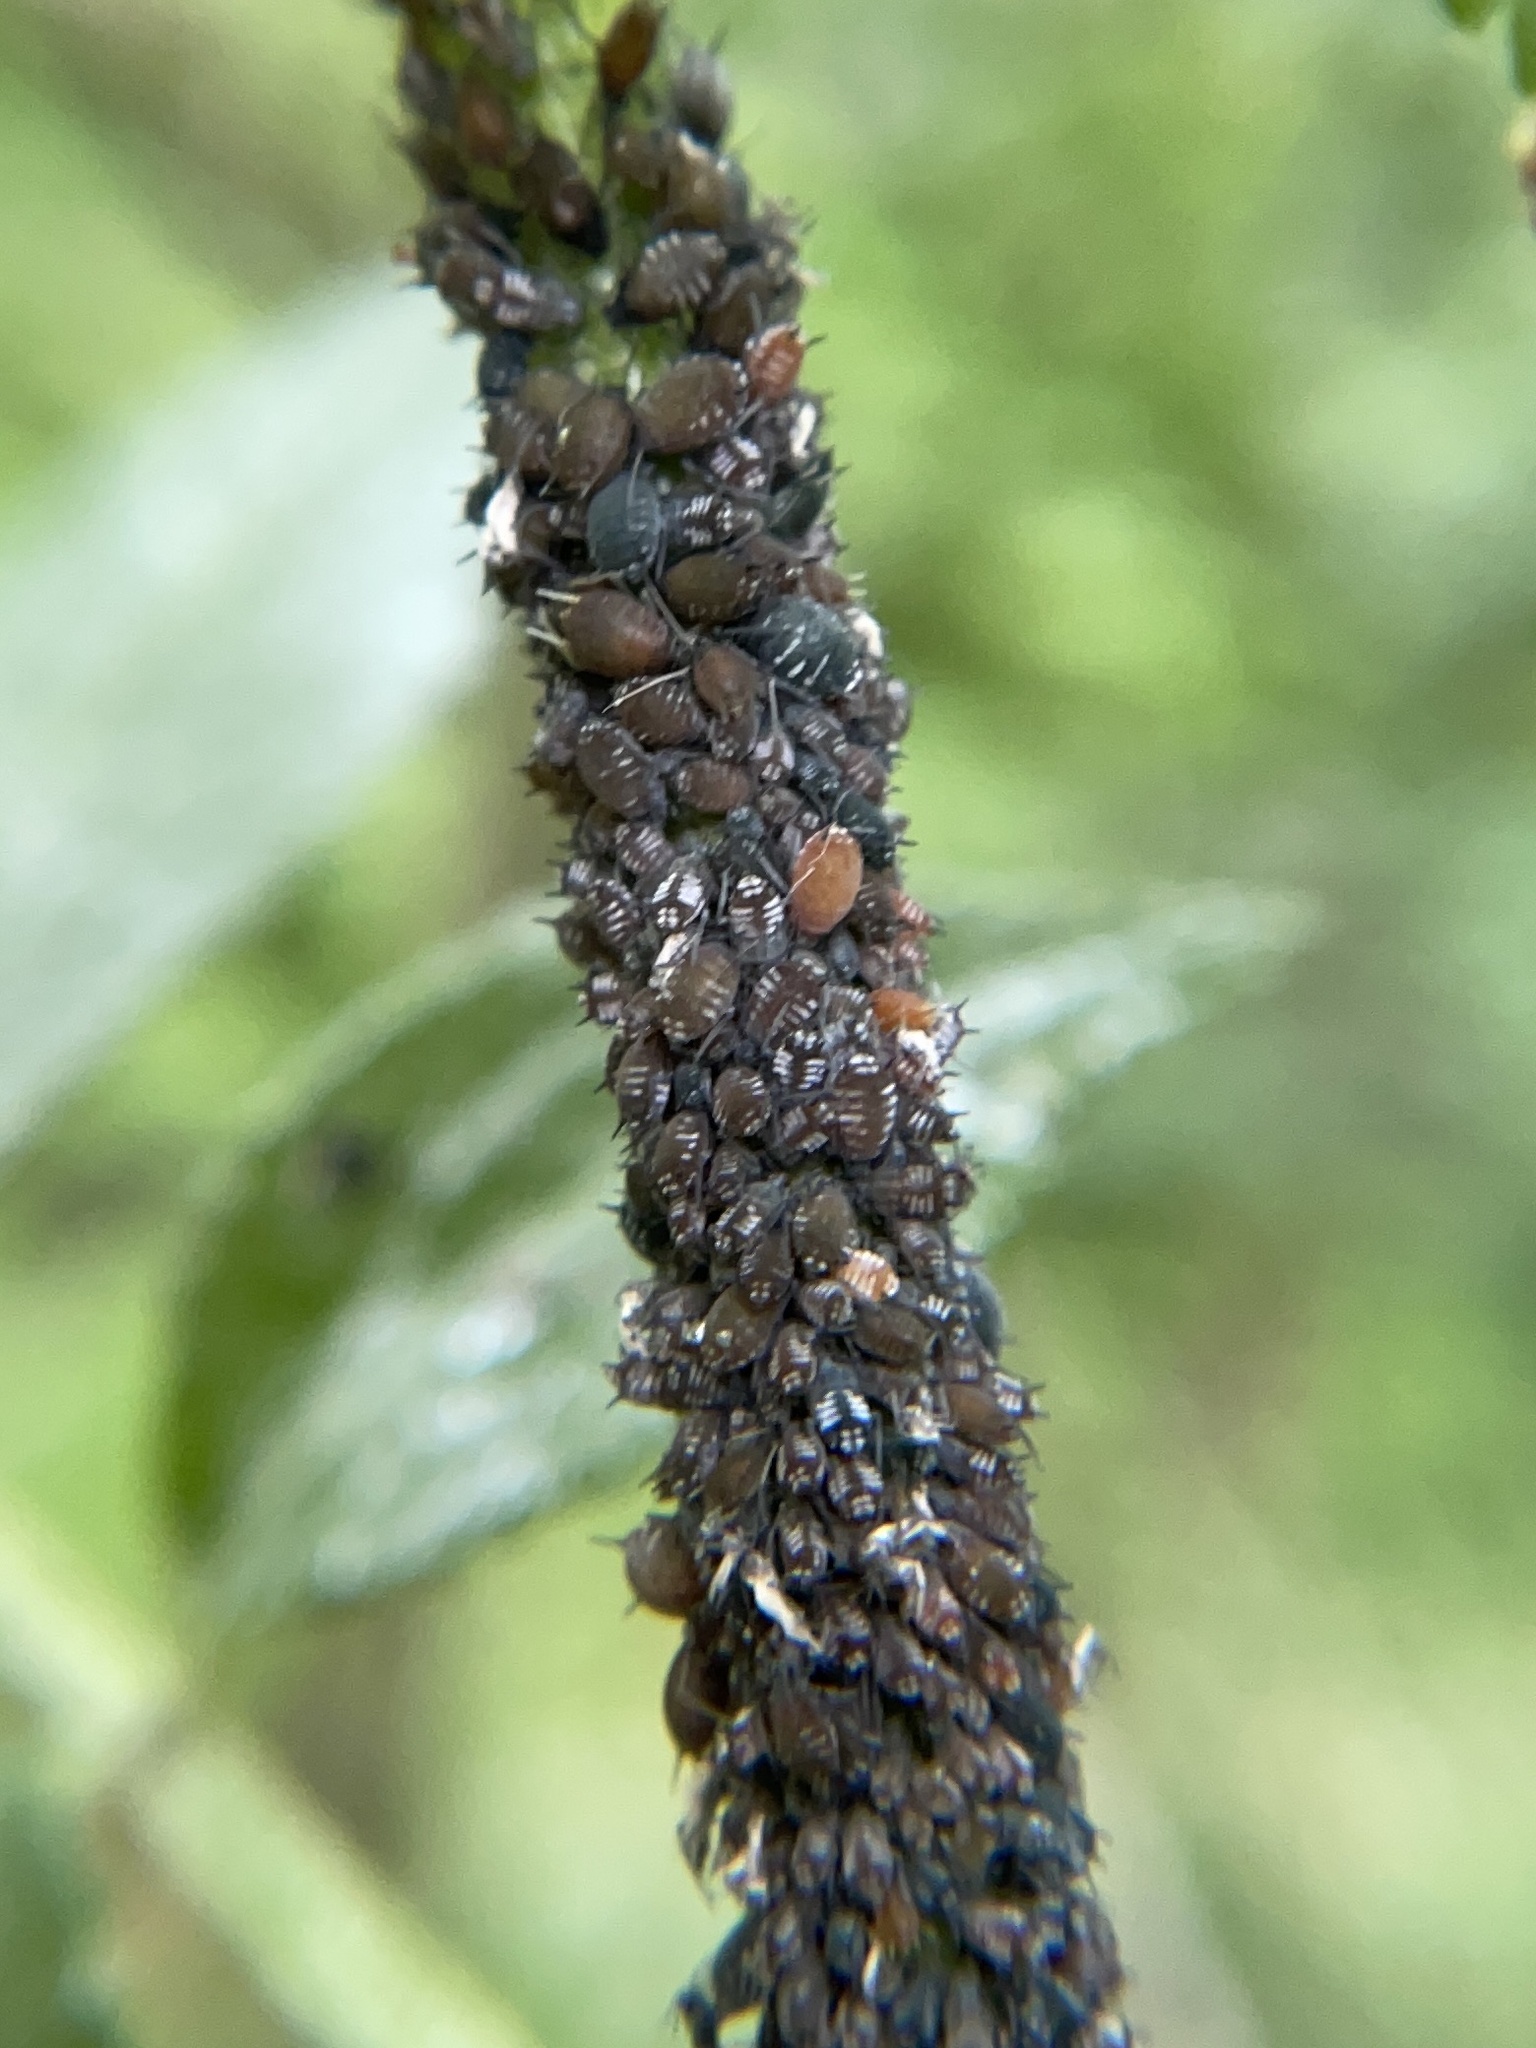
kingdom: Animalia
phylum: Arthropoda
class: Insecta
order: Hemiptera
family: Aphididae
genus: Aphis
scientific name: Aphis sambuci
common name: Elder aphid
